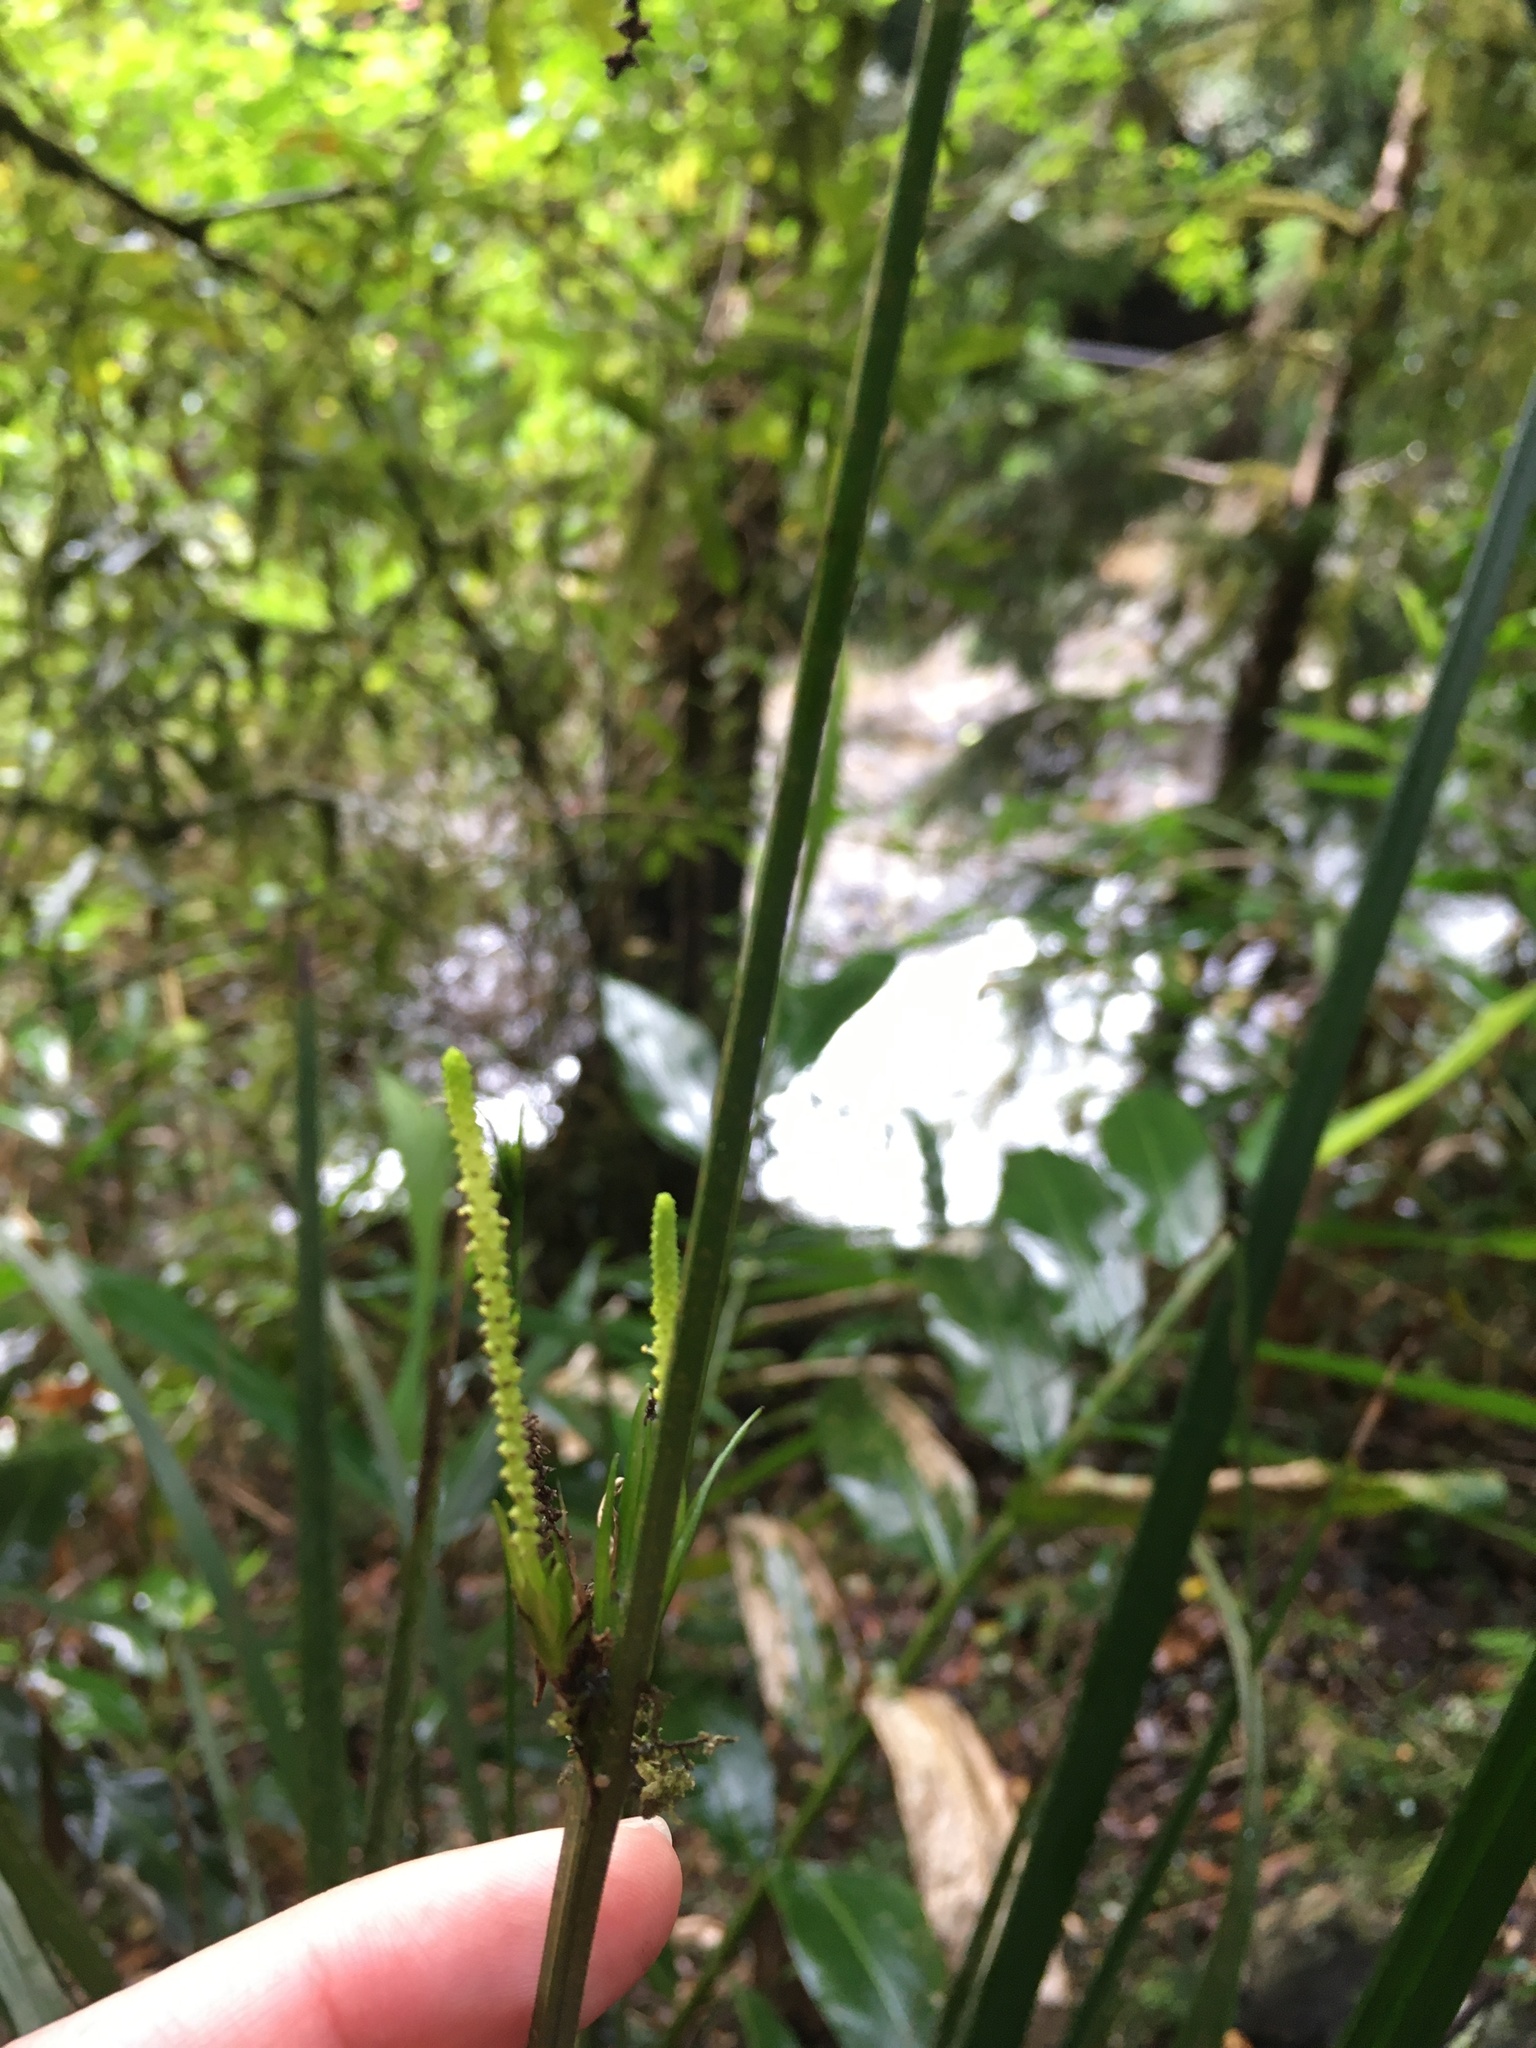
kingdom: Plantae
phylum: Tracheophyta
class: Liliopsida
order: Alismatales
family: Araceae
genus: Gymnostachys
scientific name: Gymnostachys anceps
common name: Settler's-flax
